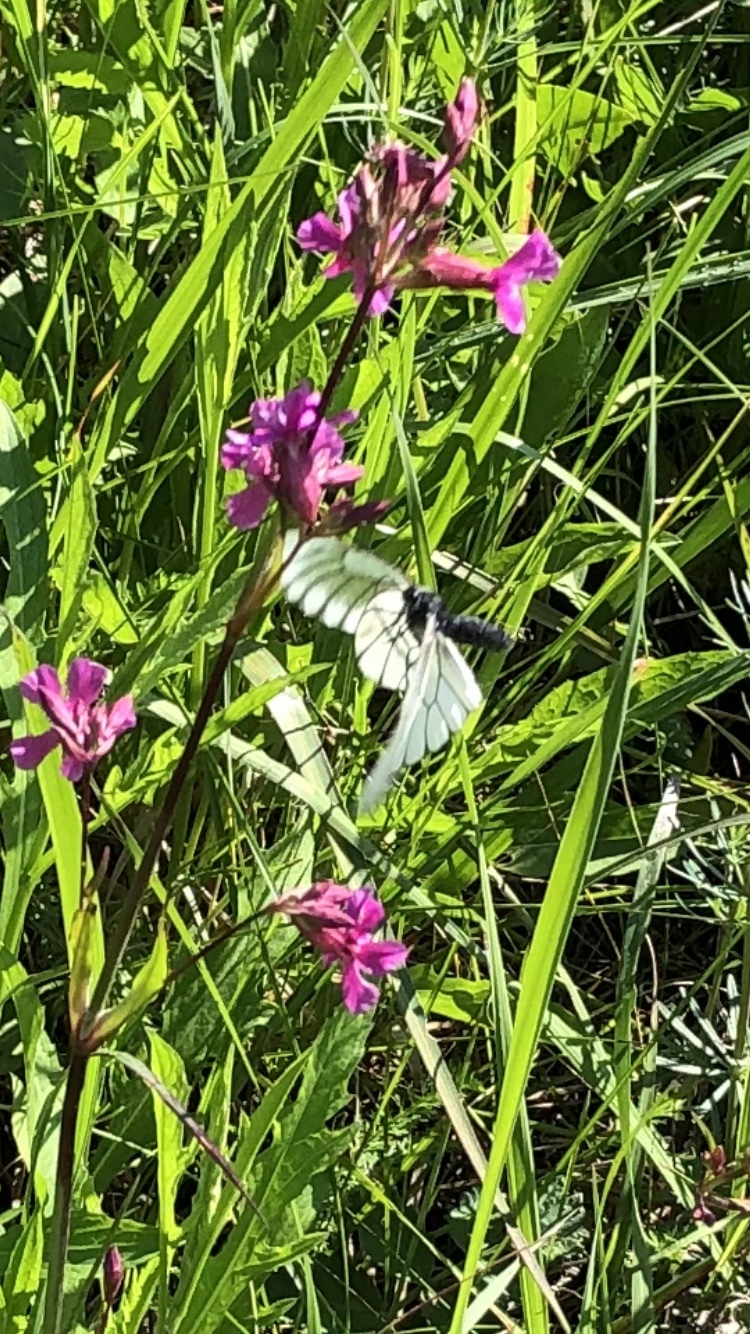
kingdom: Animalia
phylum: Arthropoda
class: Insecta
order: Lepidoptera
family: Pieridae
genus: Aporia
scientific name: Aporia crataegi
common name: Black-veined white
